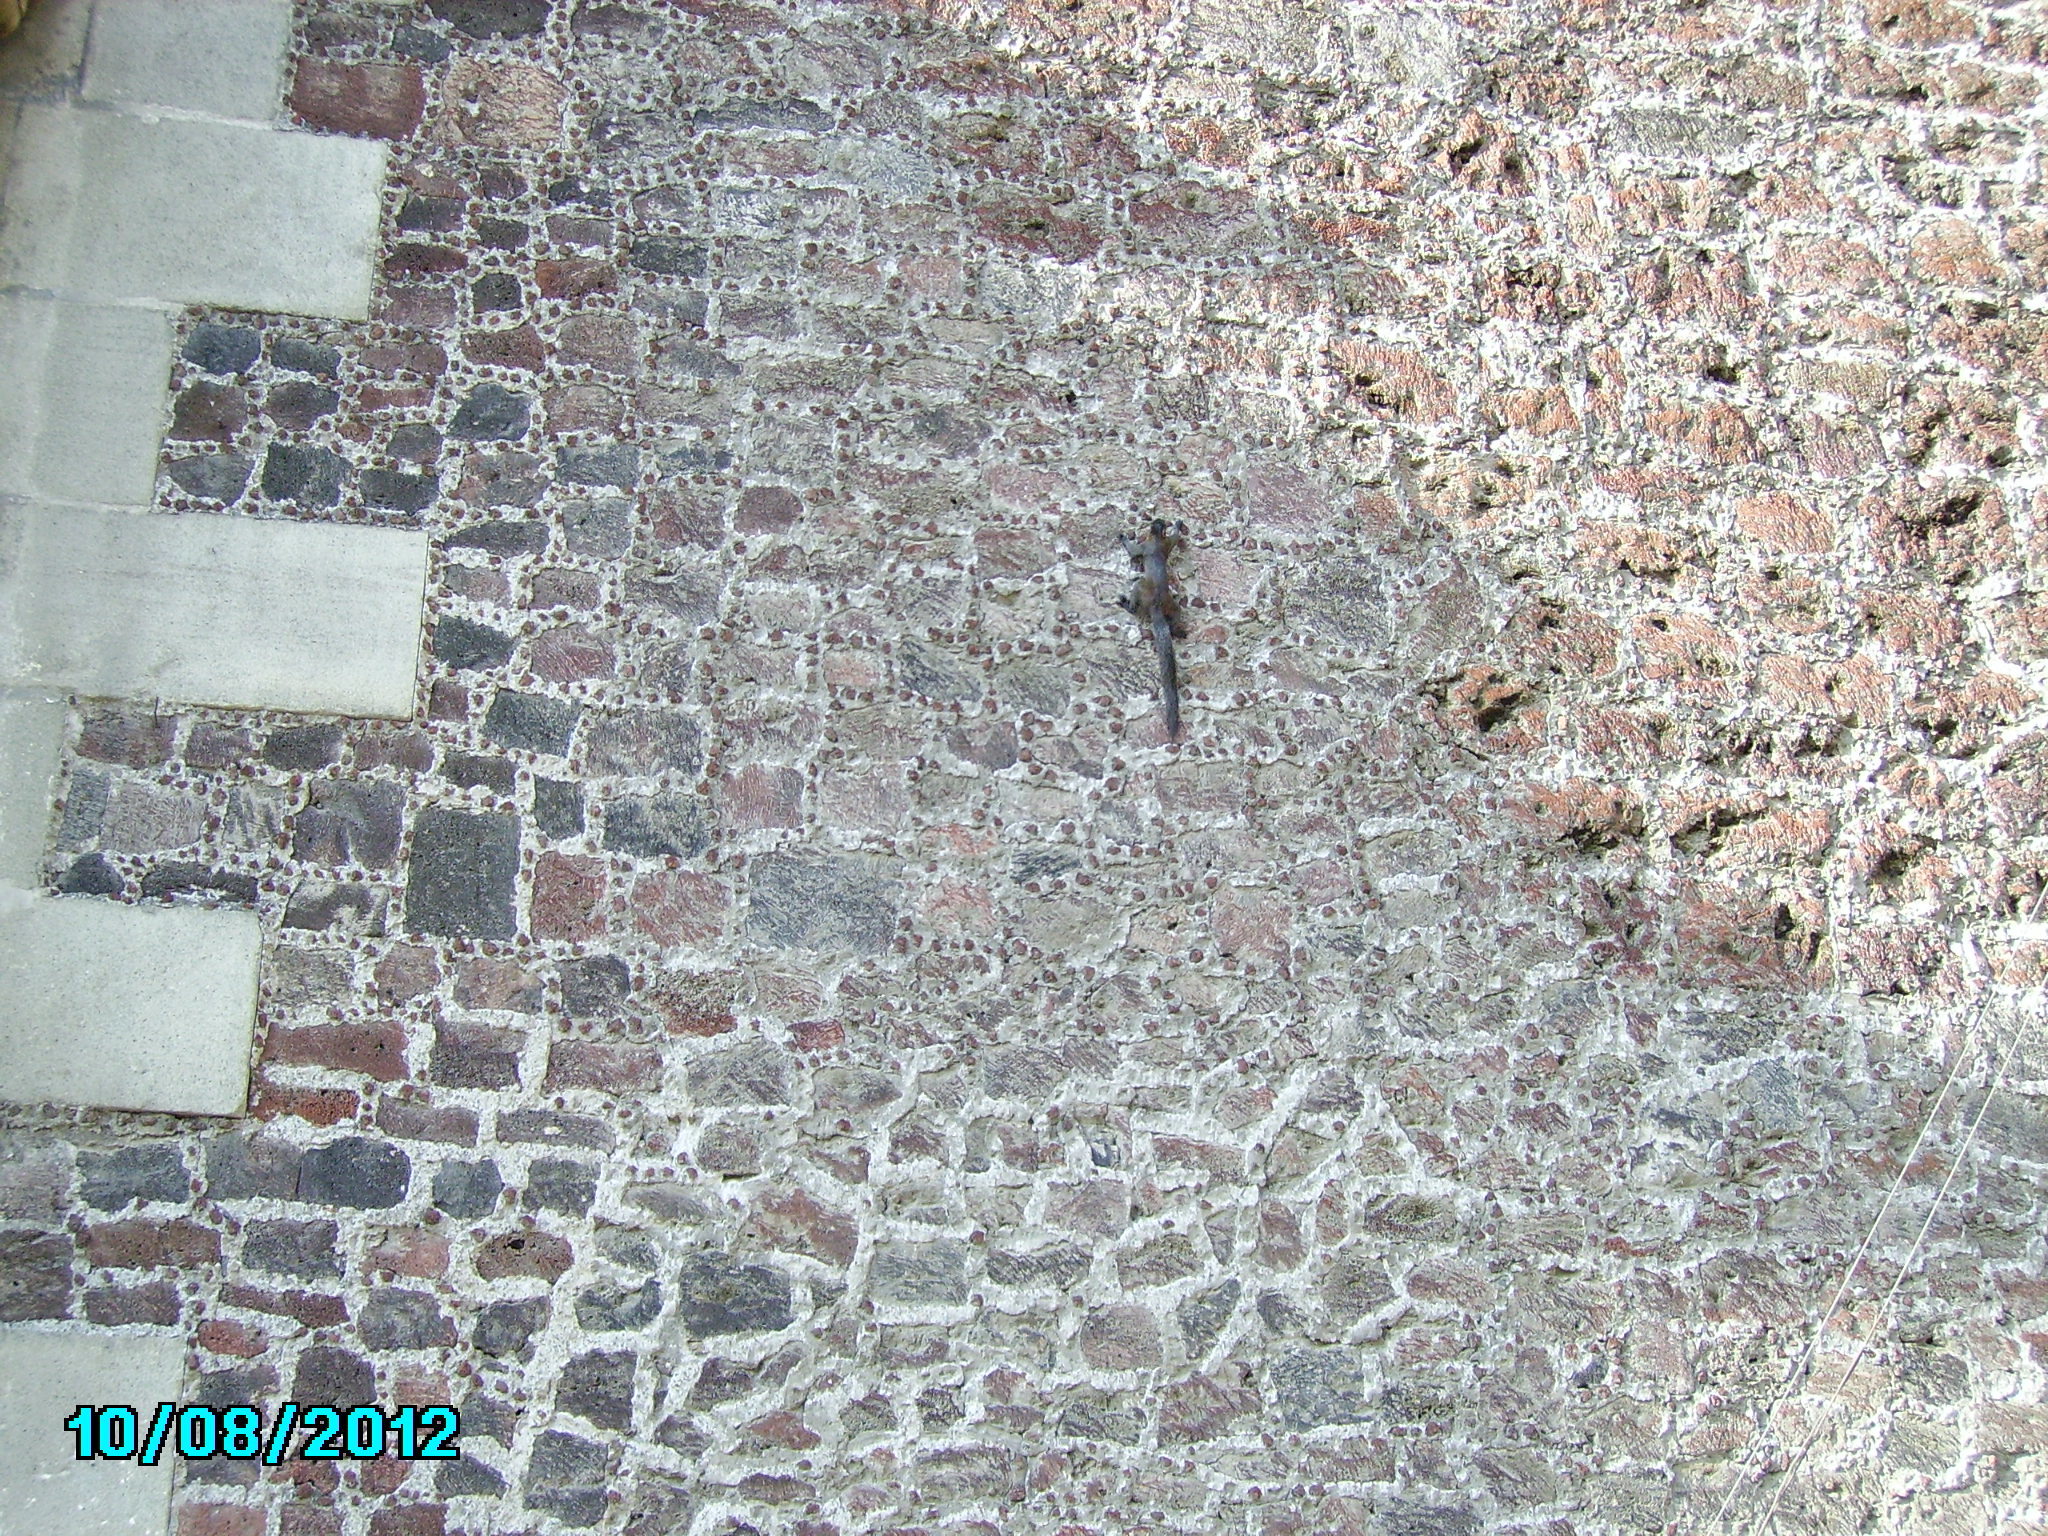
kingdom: Animalia
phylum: Chordata
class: Mammalia
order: Rodentia
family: Sciuridae
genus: Sciurus
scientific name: Sciurus aureogaster
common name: Red-bellied squirrel
